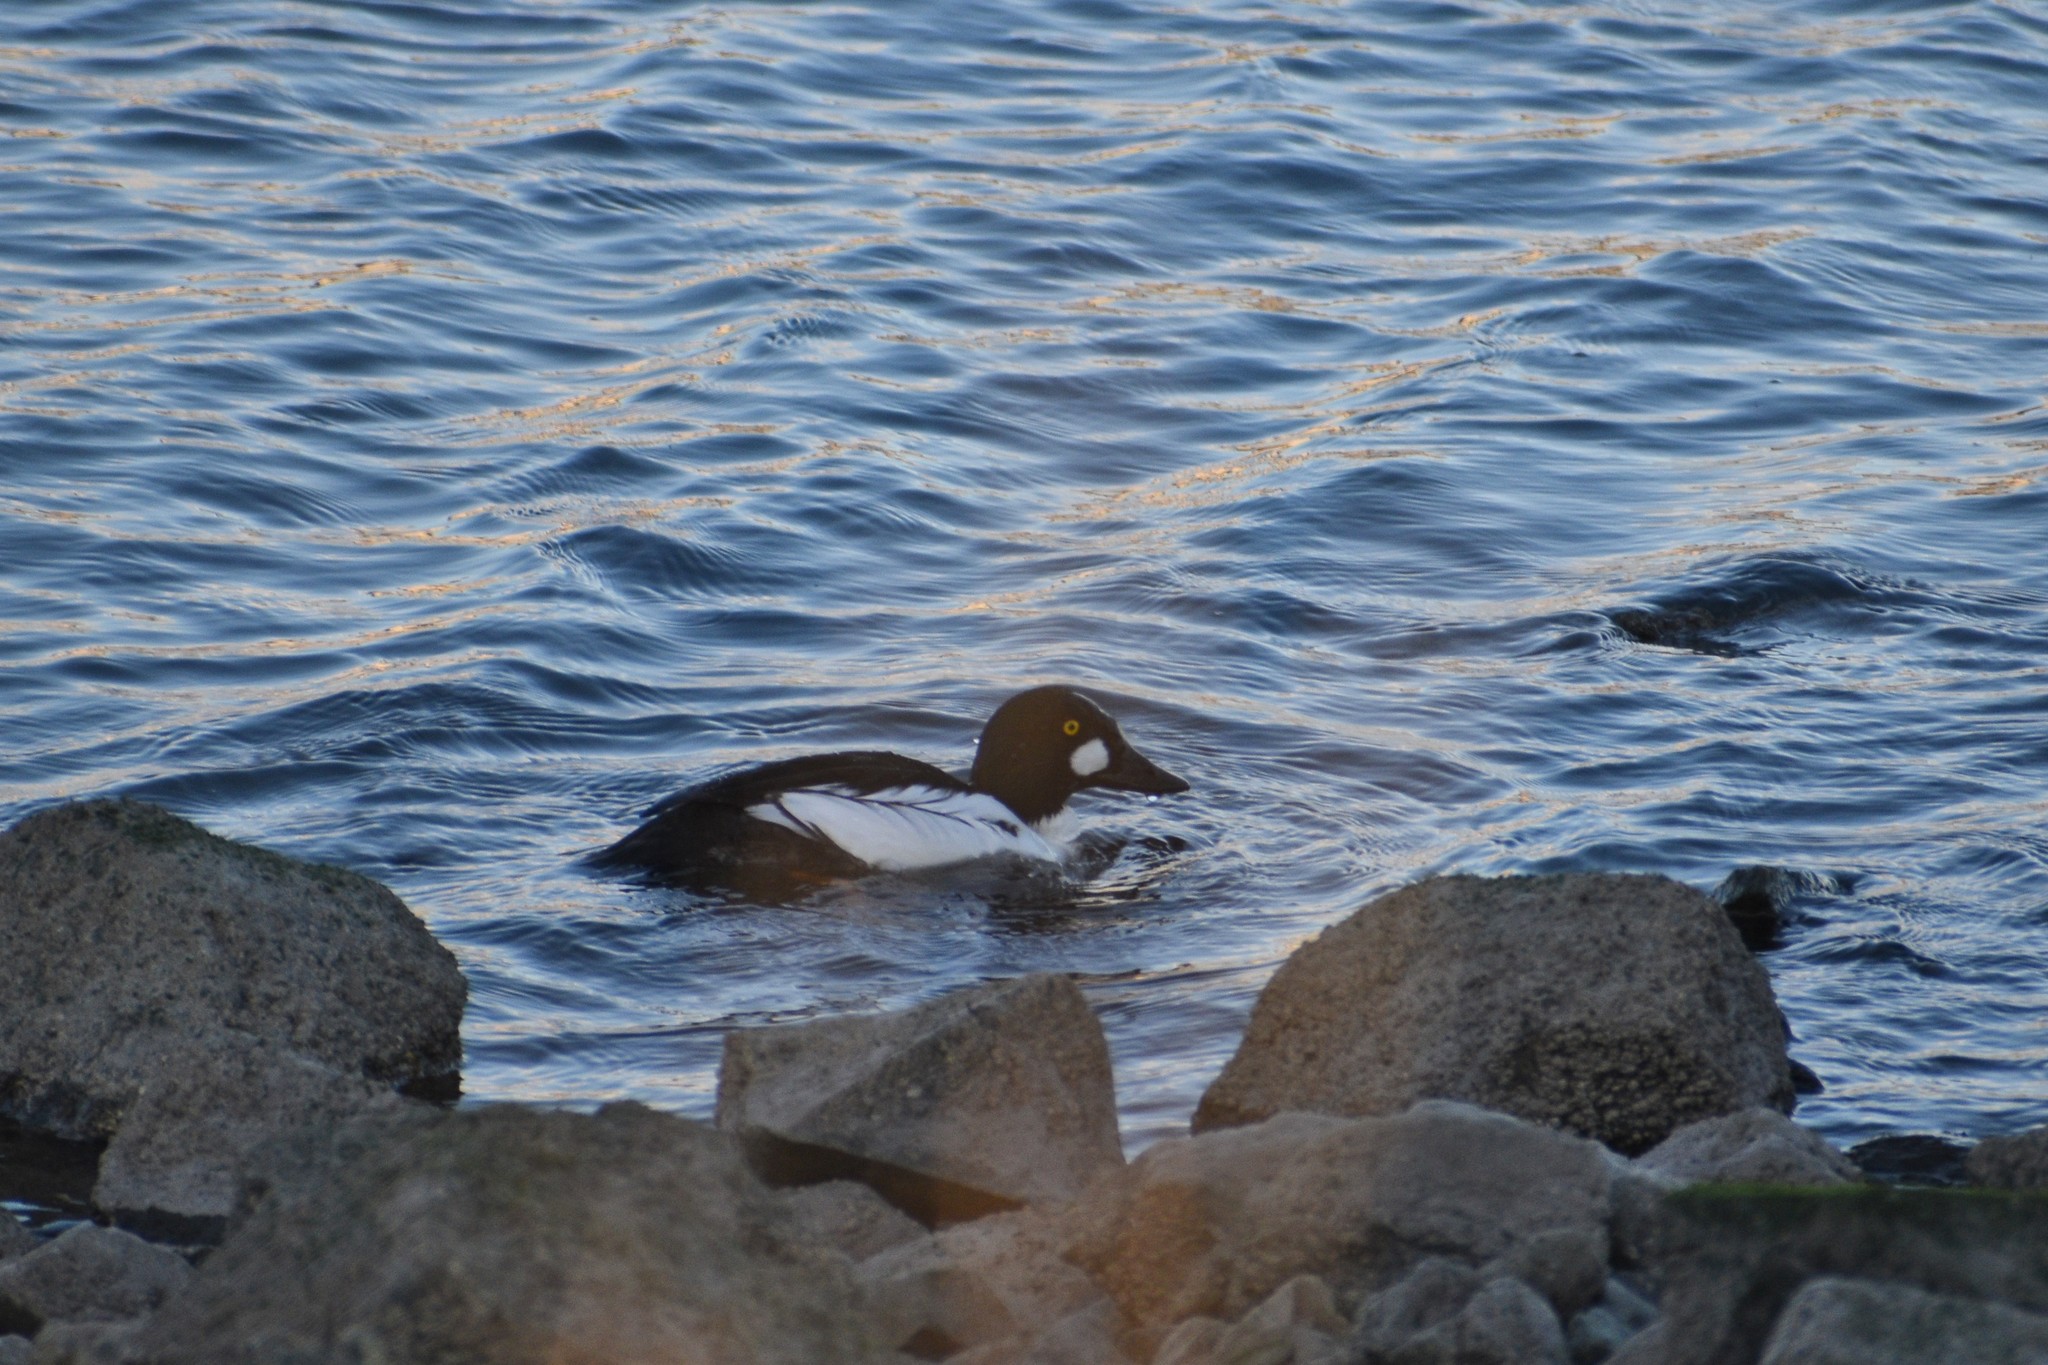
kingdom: Animalia
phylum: Chordata
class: Aves
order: Anseriformes
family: Anatidae
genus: Bucephala
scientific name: Bucephala clangula
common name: Common goldeneye
